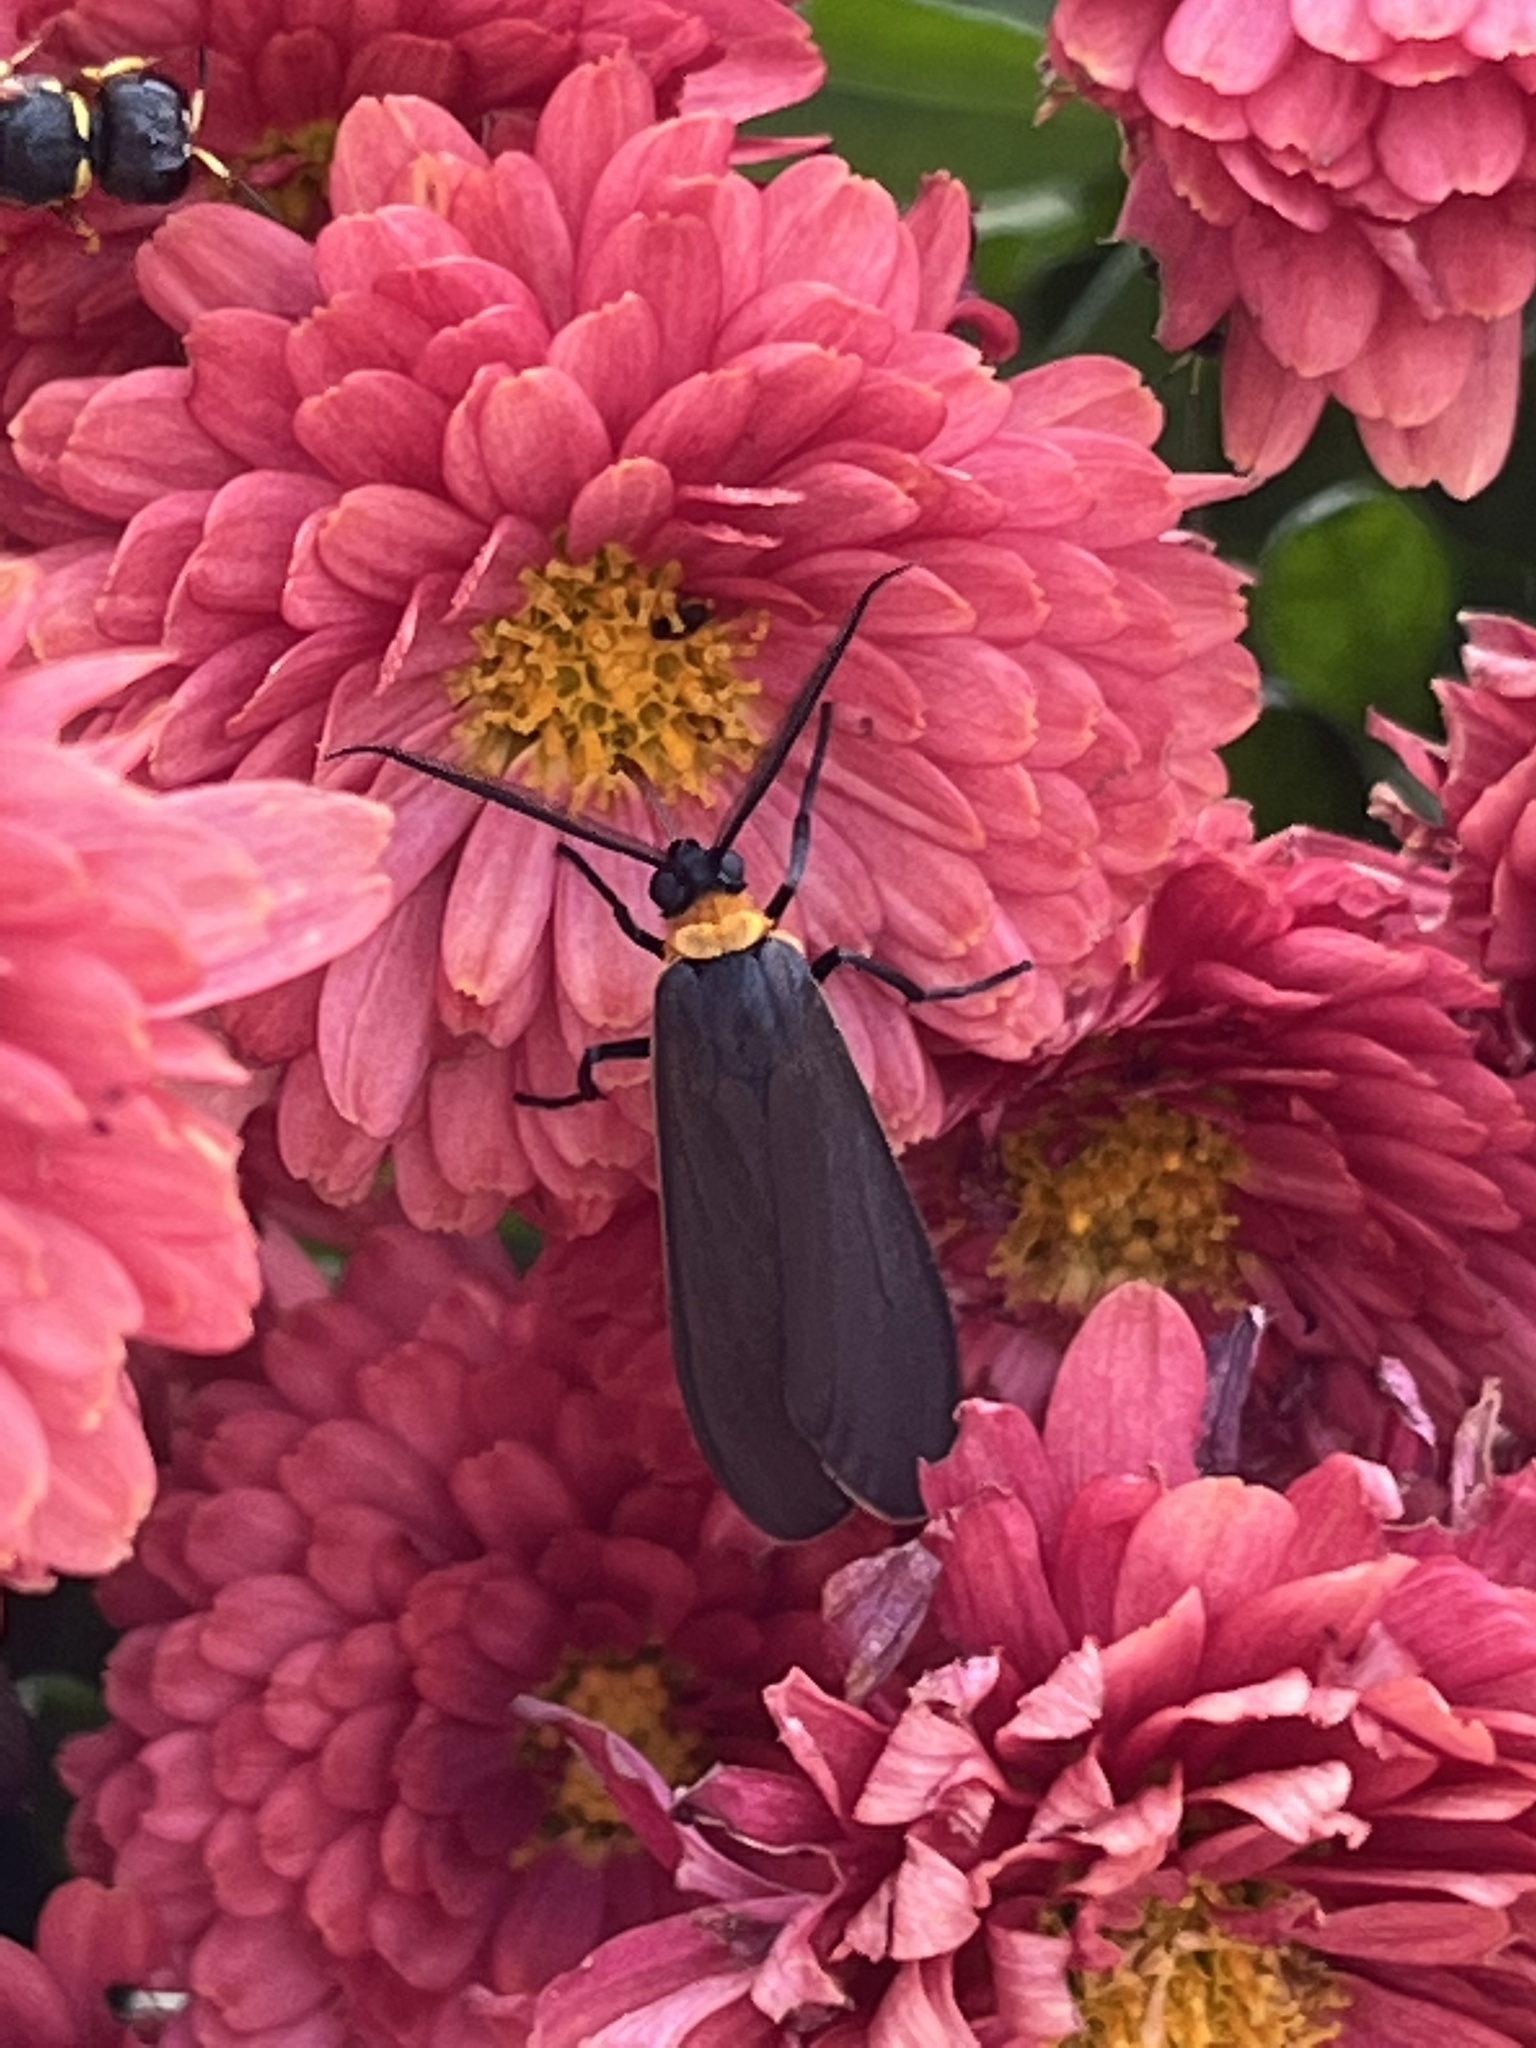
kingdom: Animalia
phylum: Arthropoda
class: Insecta
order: Lepidoptera
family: Erebidae
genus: Cisseps
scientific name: Cisseps fulvicollis
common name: Yellow-collared scape moth
